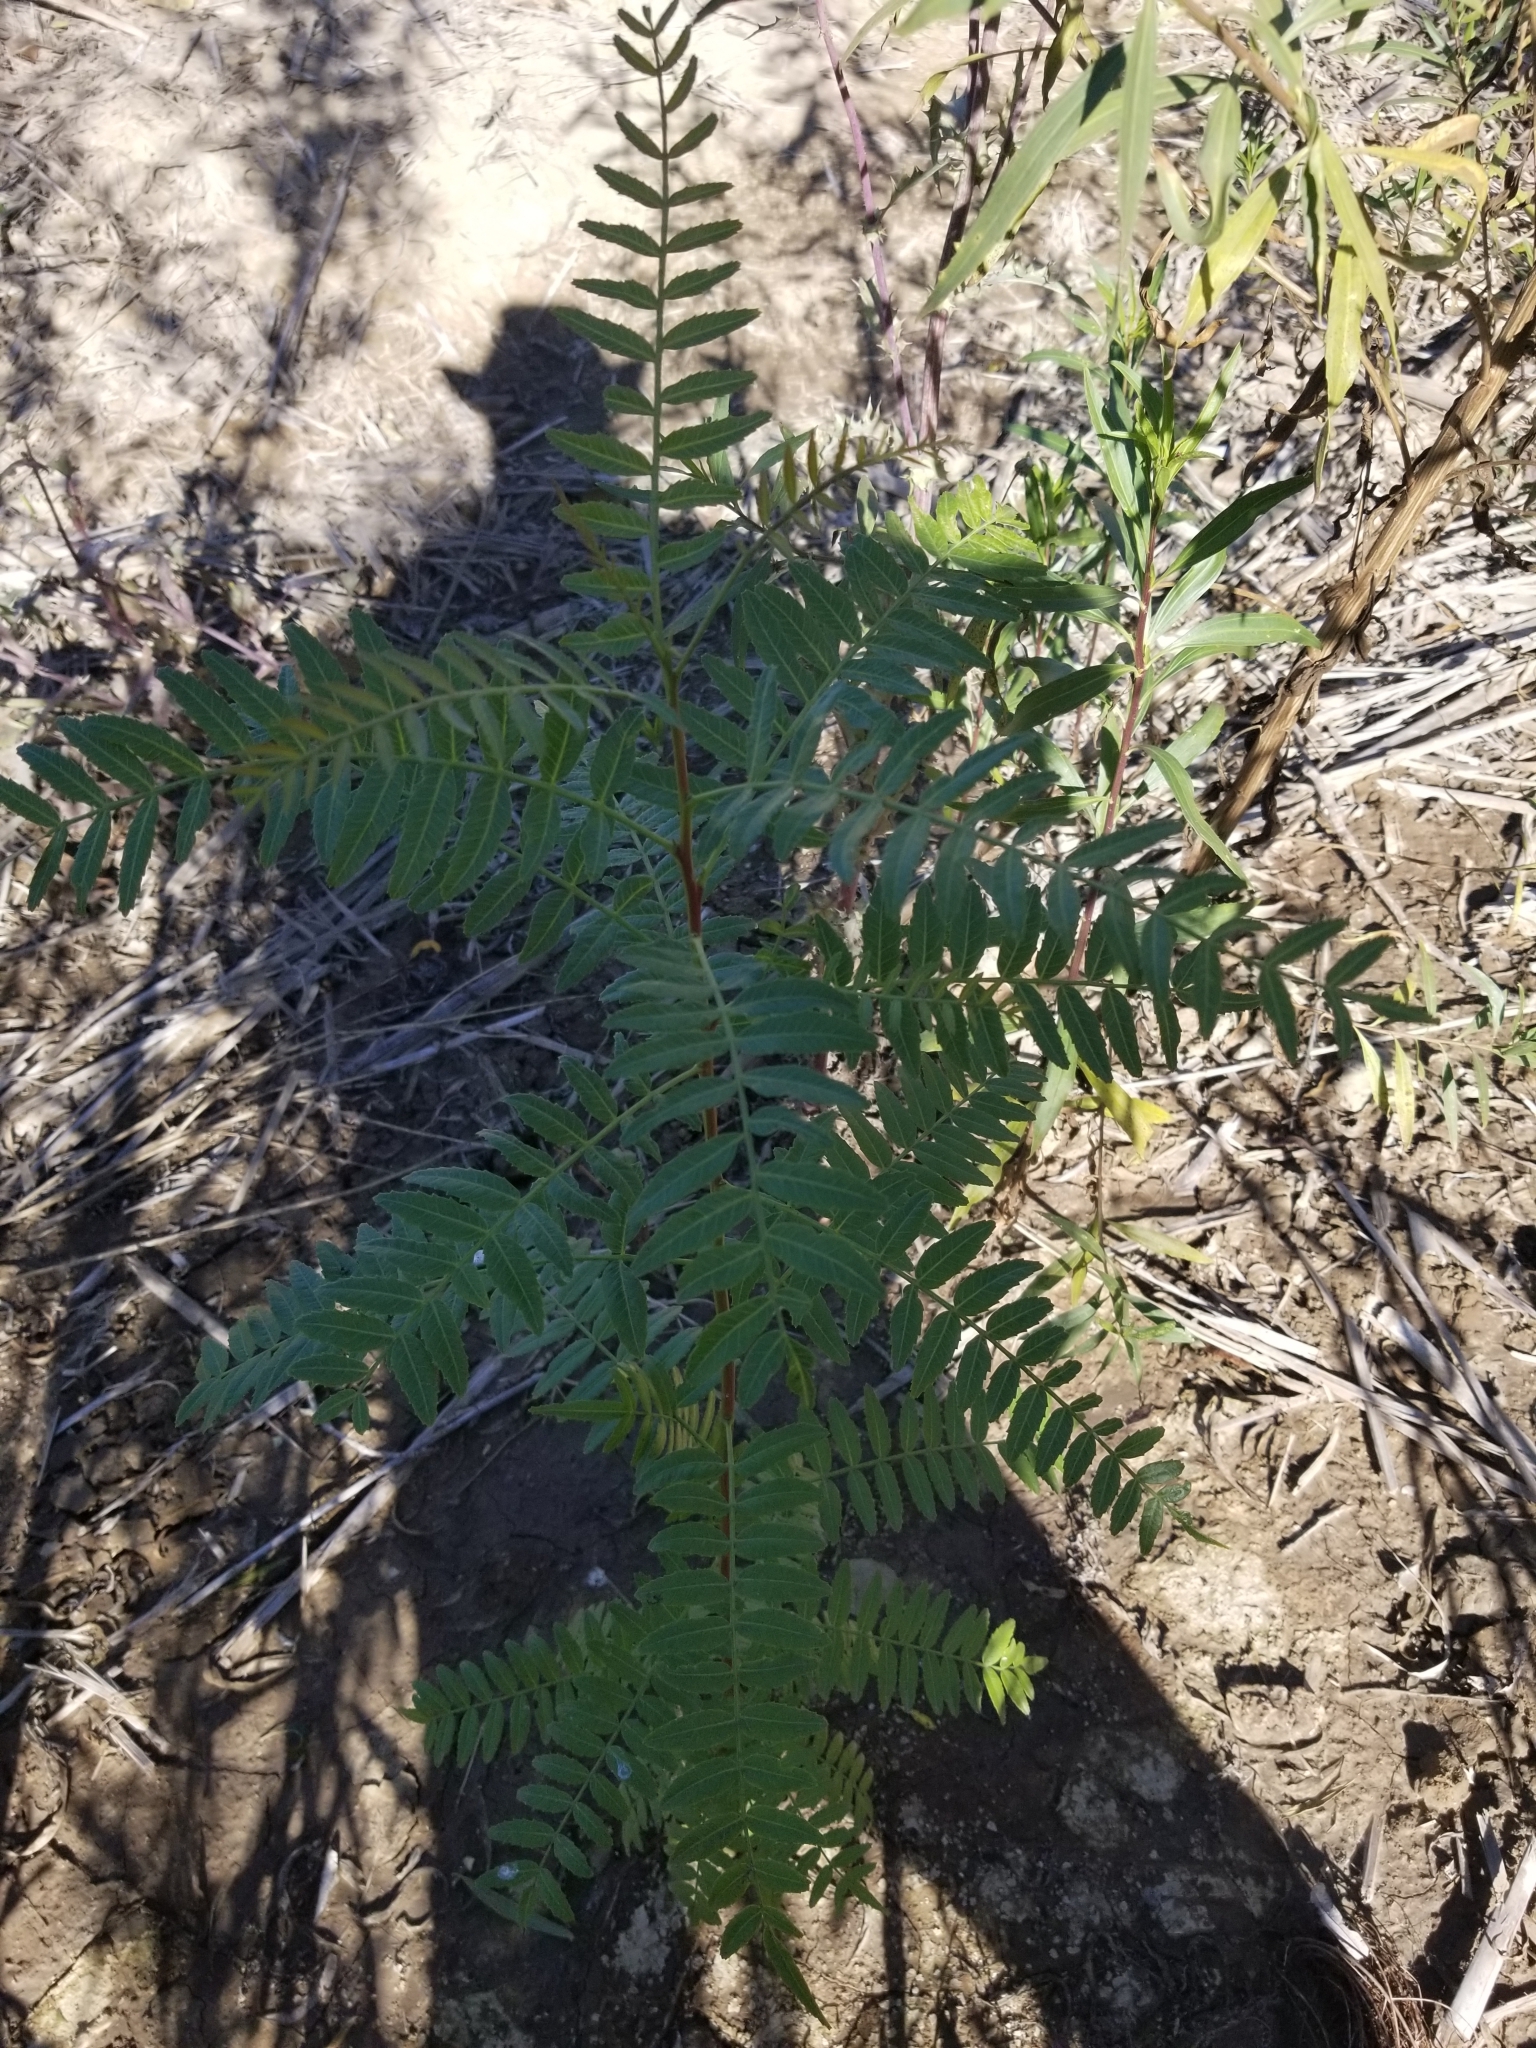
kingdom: Plantae
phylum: Tracheophyta
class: Magnoliopsida
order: Sapindales
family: Anacardiaceae
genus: Schinus
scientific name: Schinus molle
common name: Peruvian peppertree
